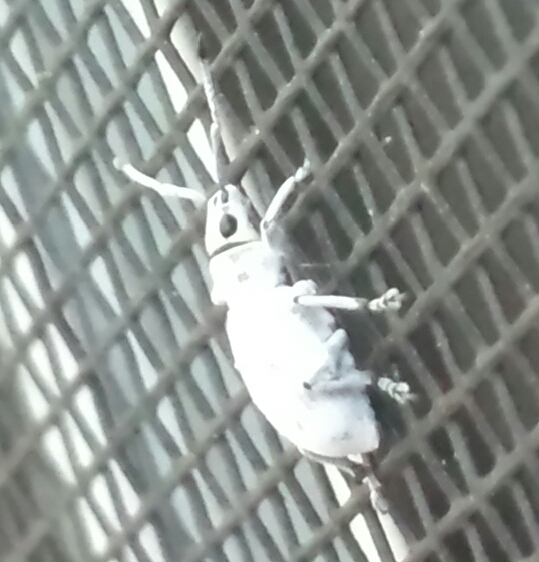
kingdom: Animalia
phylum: Arthropoda
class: Insecta
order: Coleoptera
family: Curculionidae
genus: Myllocerus
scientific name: Myllocerus undecimpustulatus
